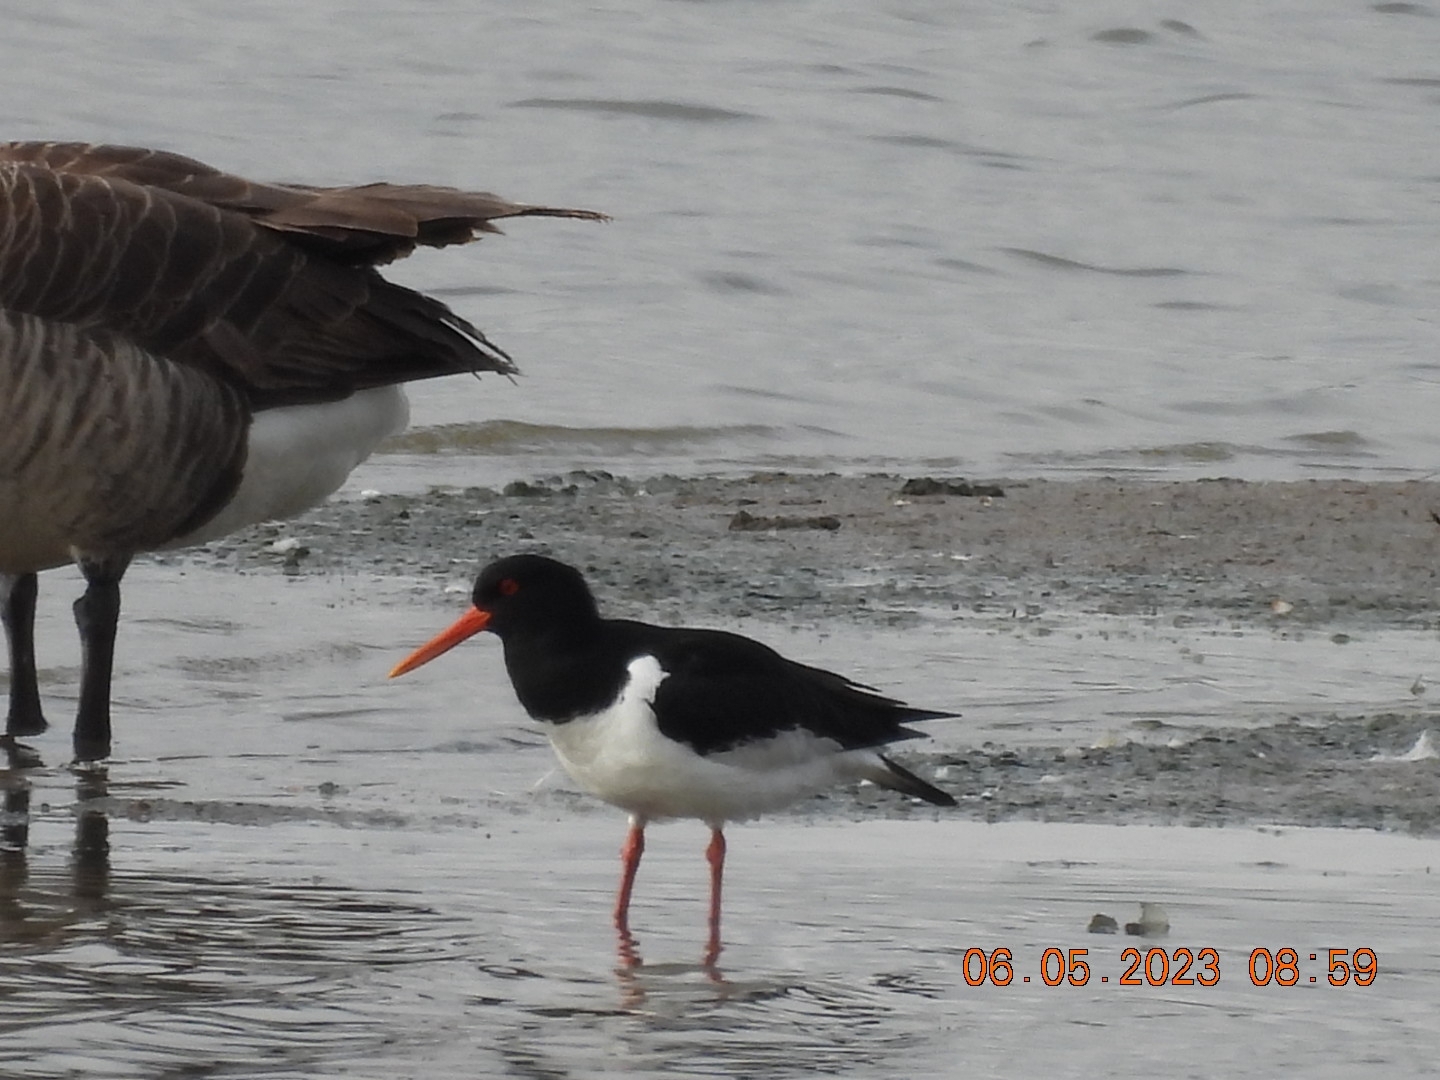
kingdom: Animalia
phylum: Chordata
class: Aves
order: Charadriiformes
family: Haematopodidae
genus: Haematopus
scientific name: Haematopus ostralegus
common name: Eurasian oystercatcher
